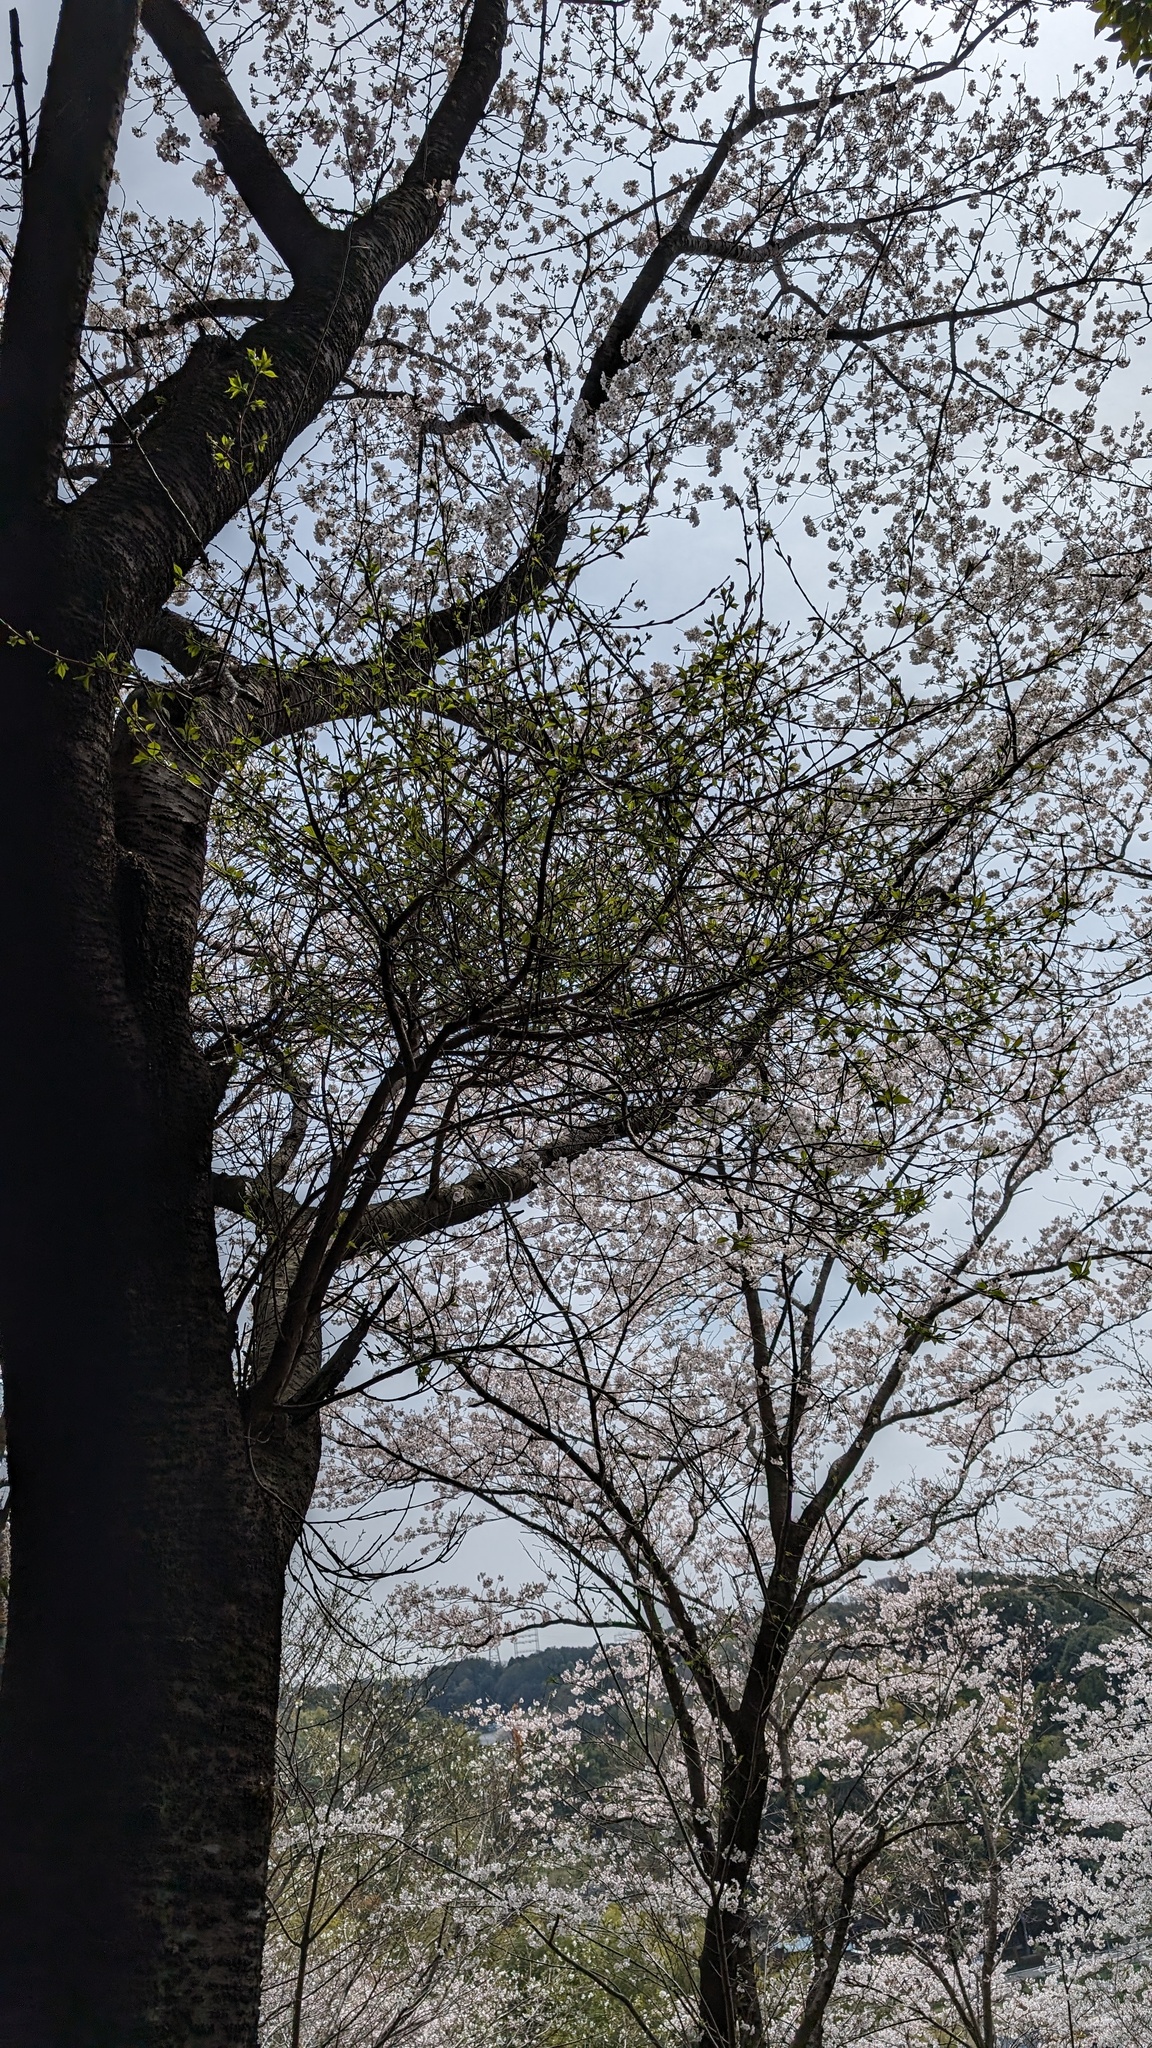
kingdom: Fungi
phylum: Ascomycota
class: Taphrinomycetes
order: Taphrinales
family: Taphrinaceae
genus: Taphrina
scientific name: Taphrina wiesneri
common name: Cherry leaf curl
